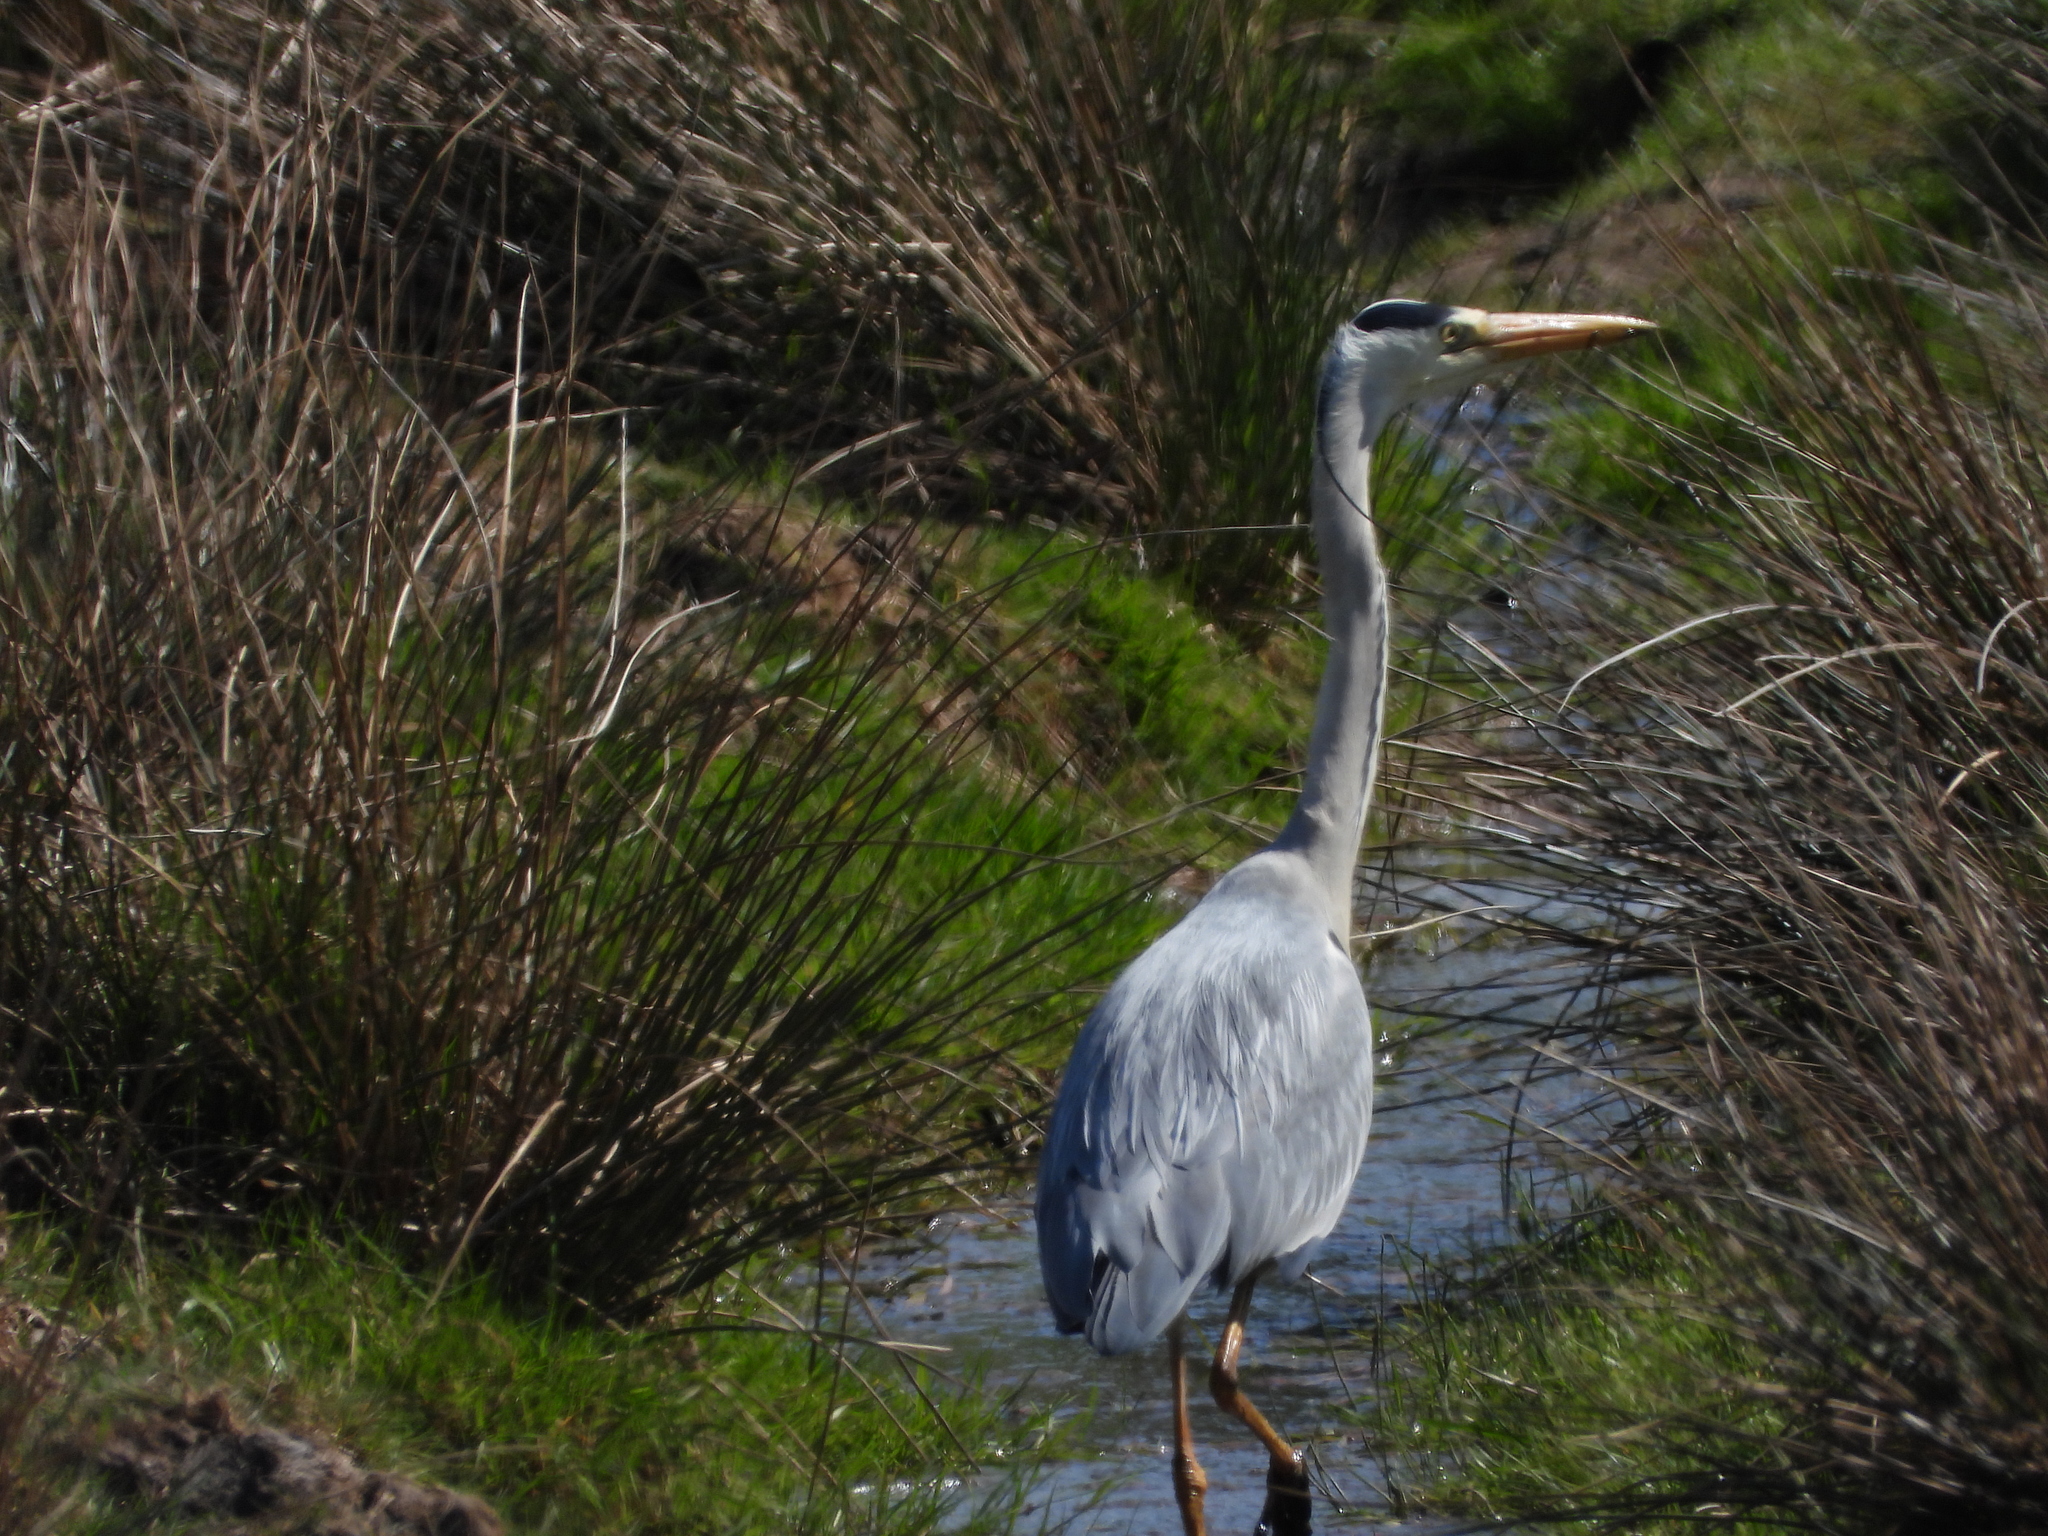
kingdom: Animalia
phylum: Chordata
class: Aves
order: Pelecaniformes
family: Ardeidae
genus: Ardea
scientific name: Ardea cinerea
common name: Grey heron
